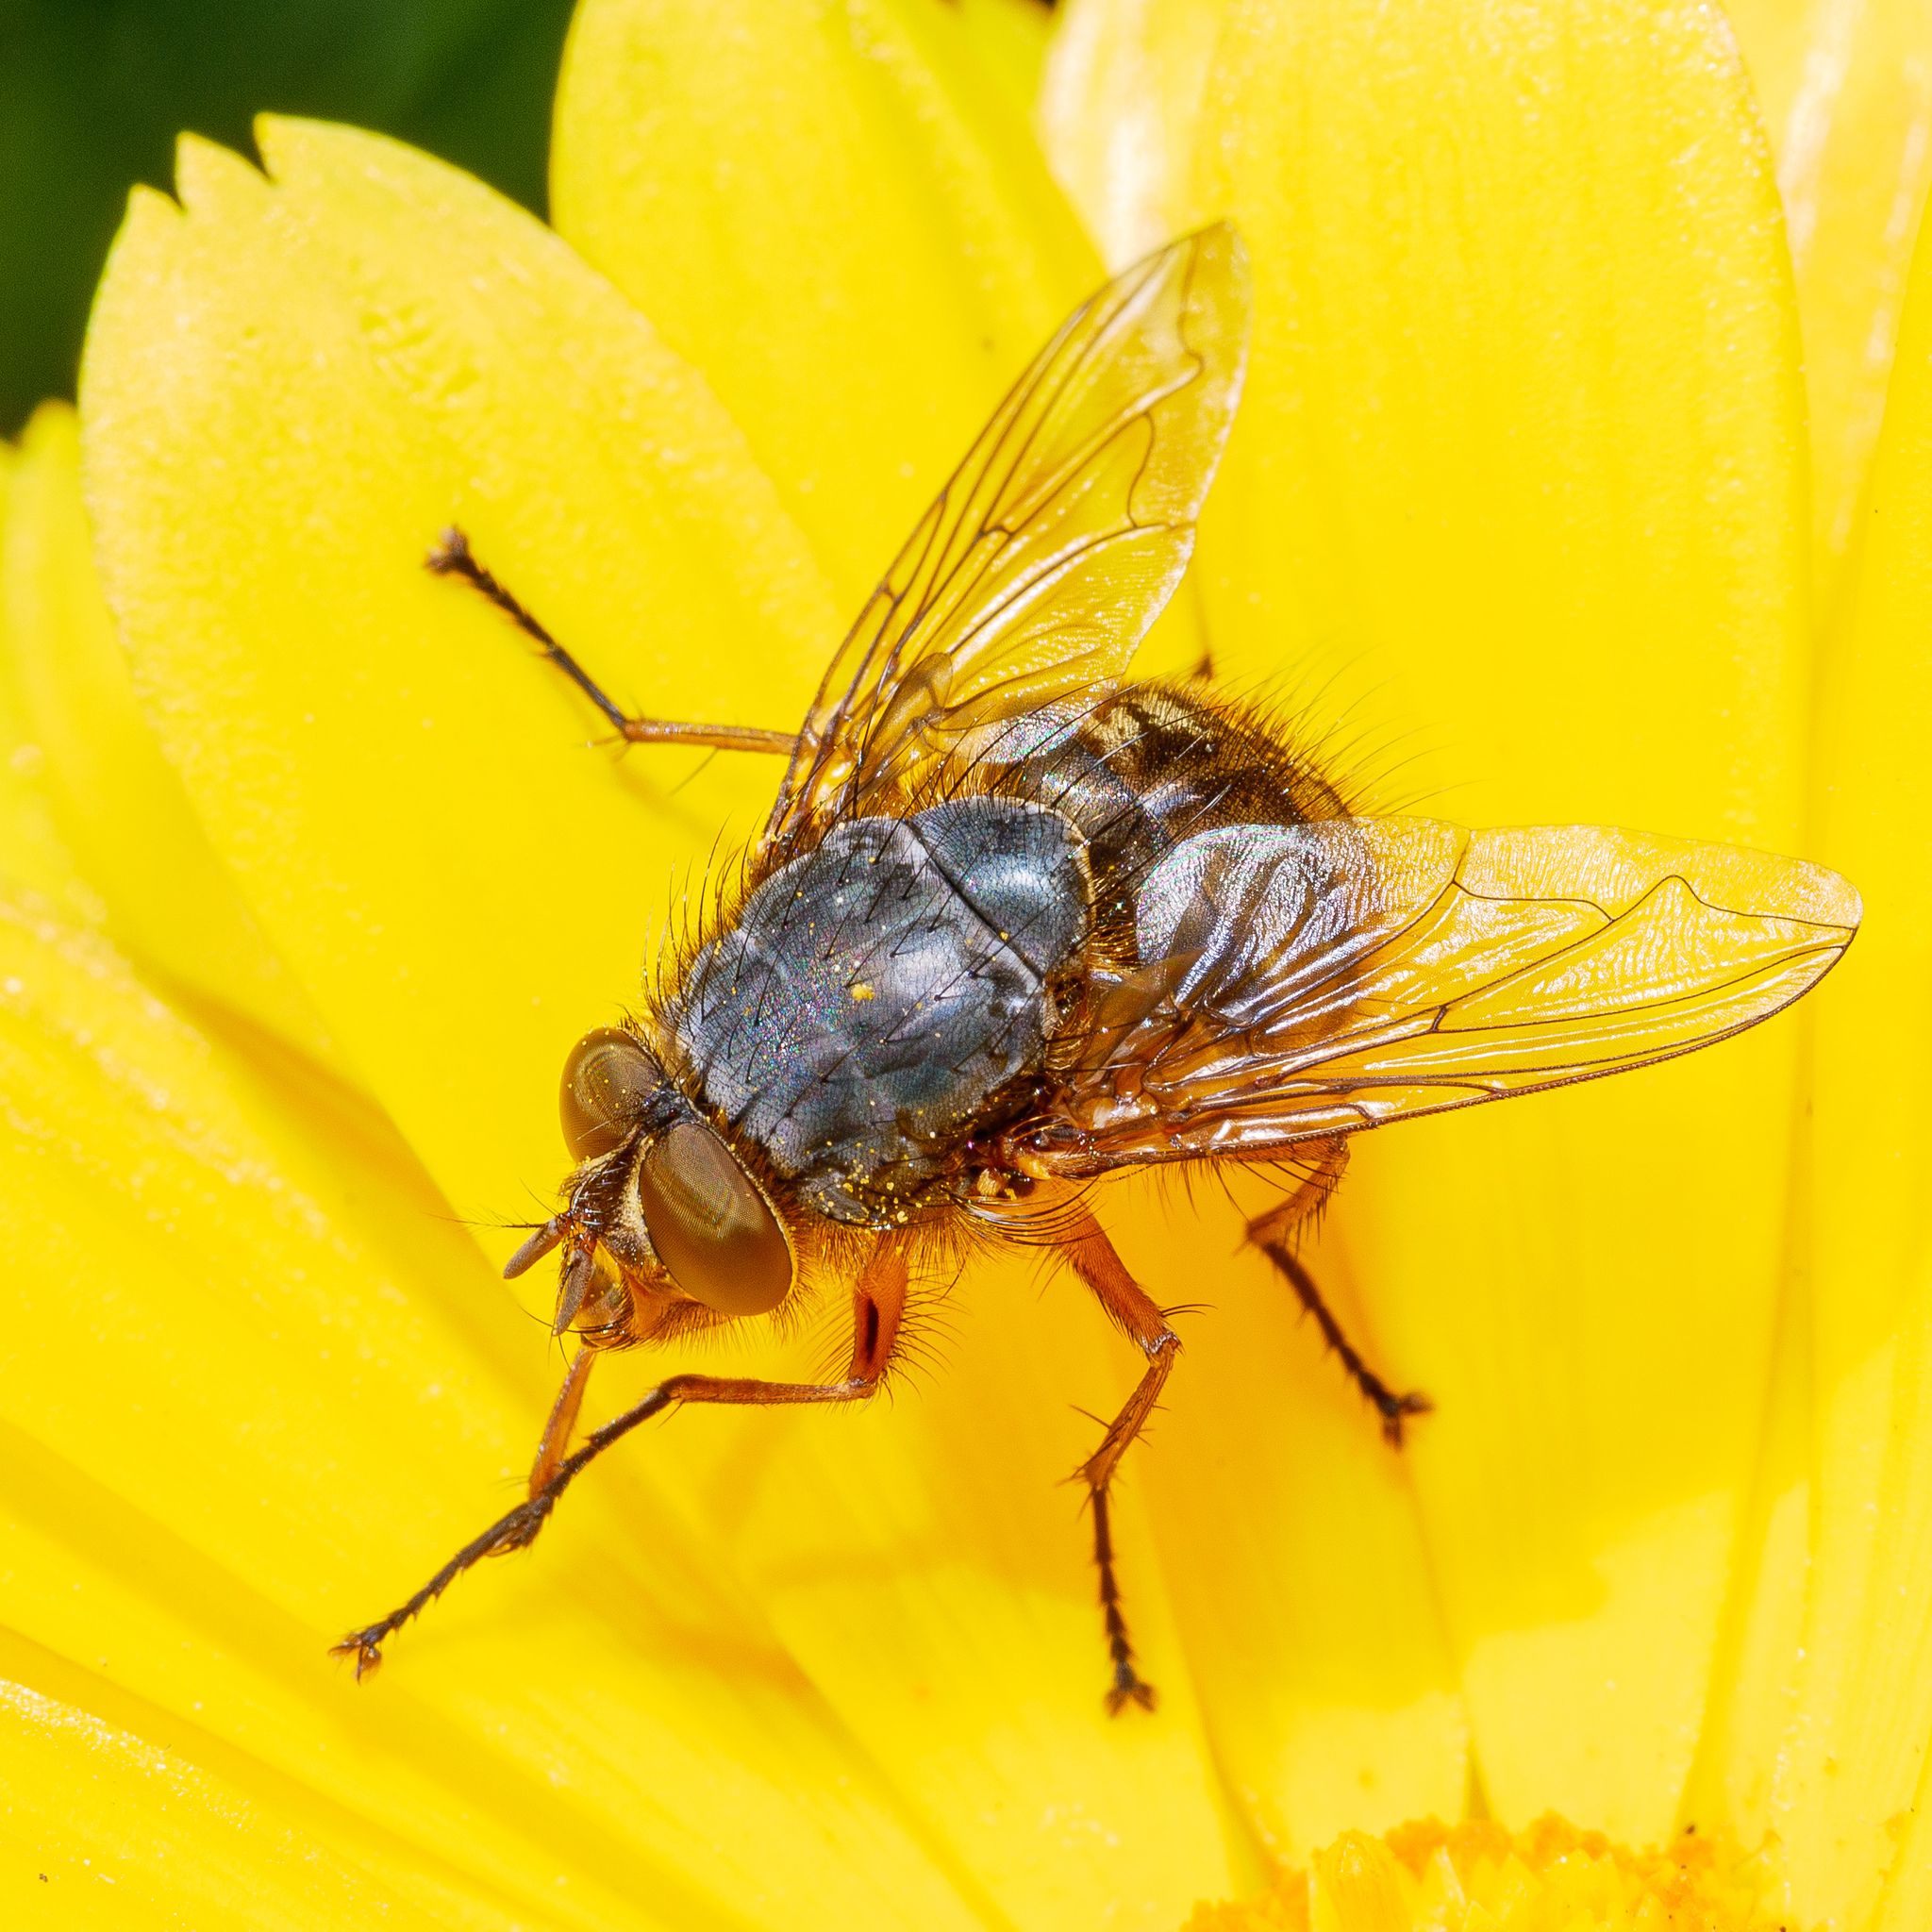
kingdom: Animalia
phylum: Arthropoda
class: Insecta
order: Diptera
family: Calliphoridae
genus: Calliphora
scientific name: Calliphora hilli
